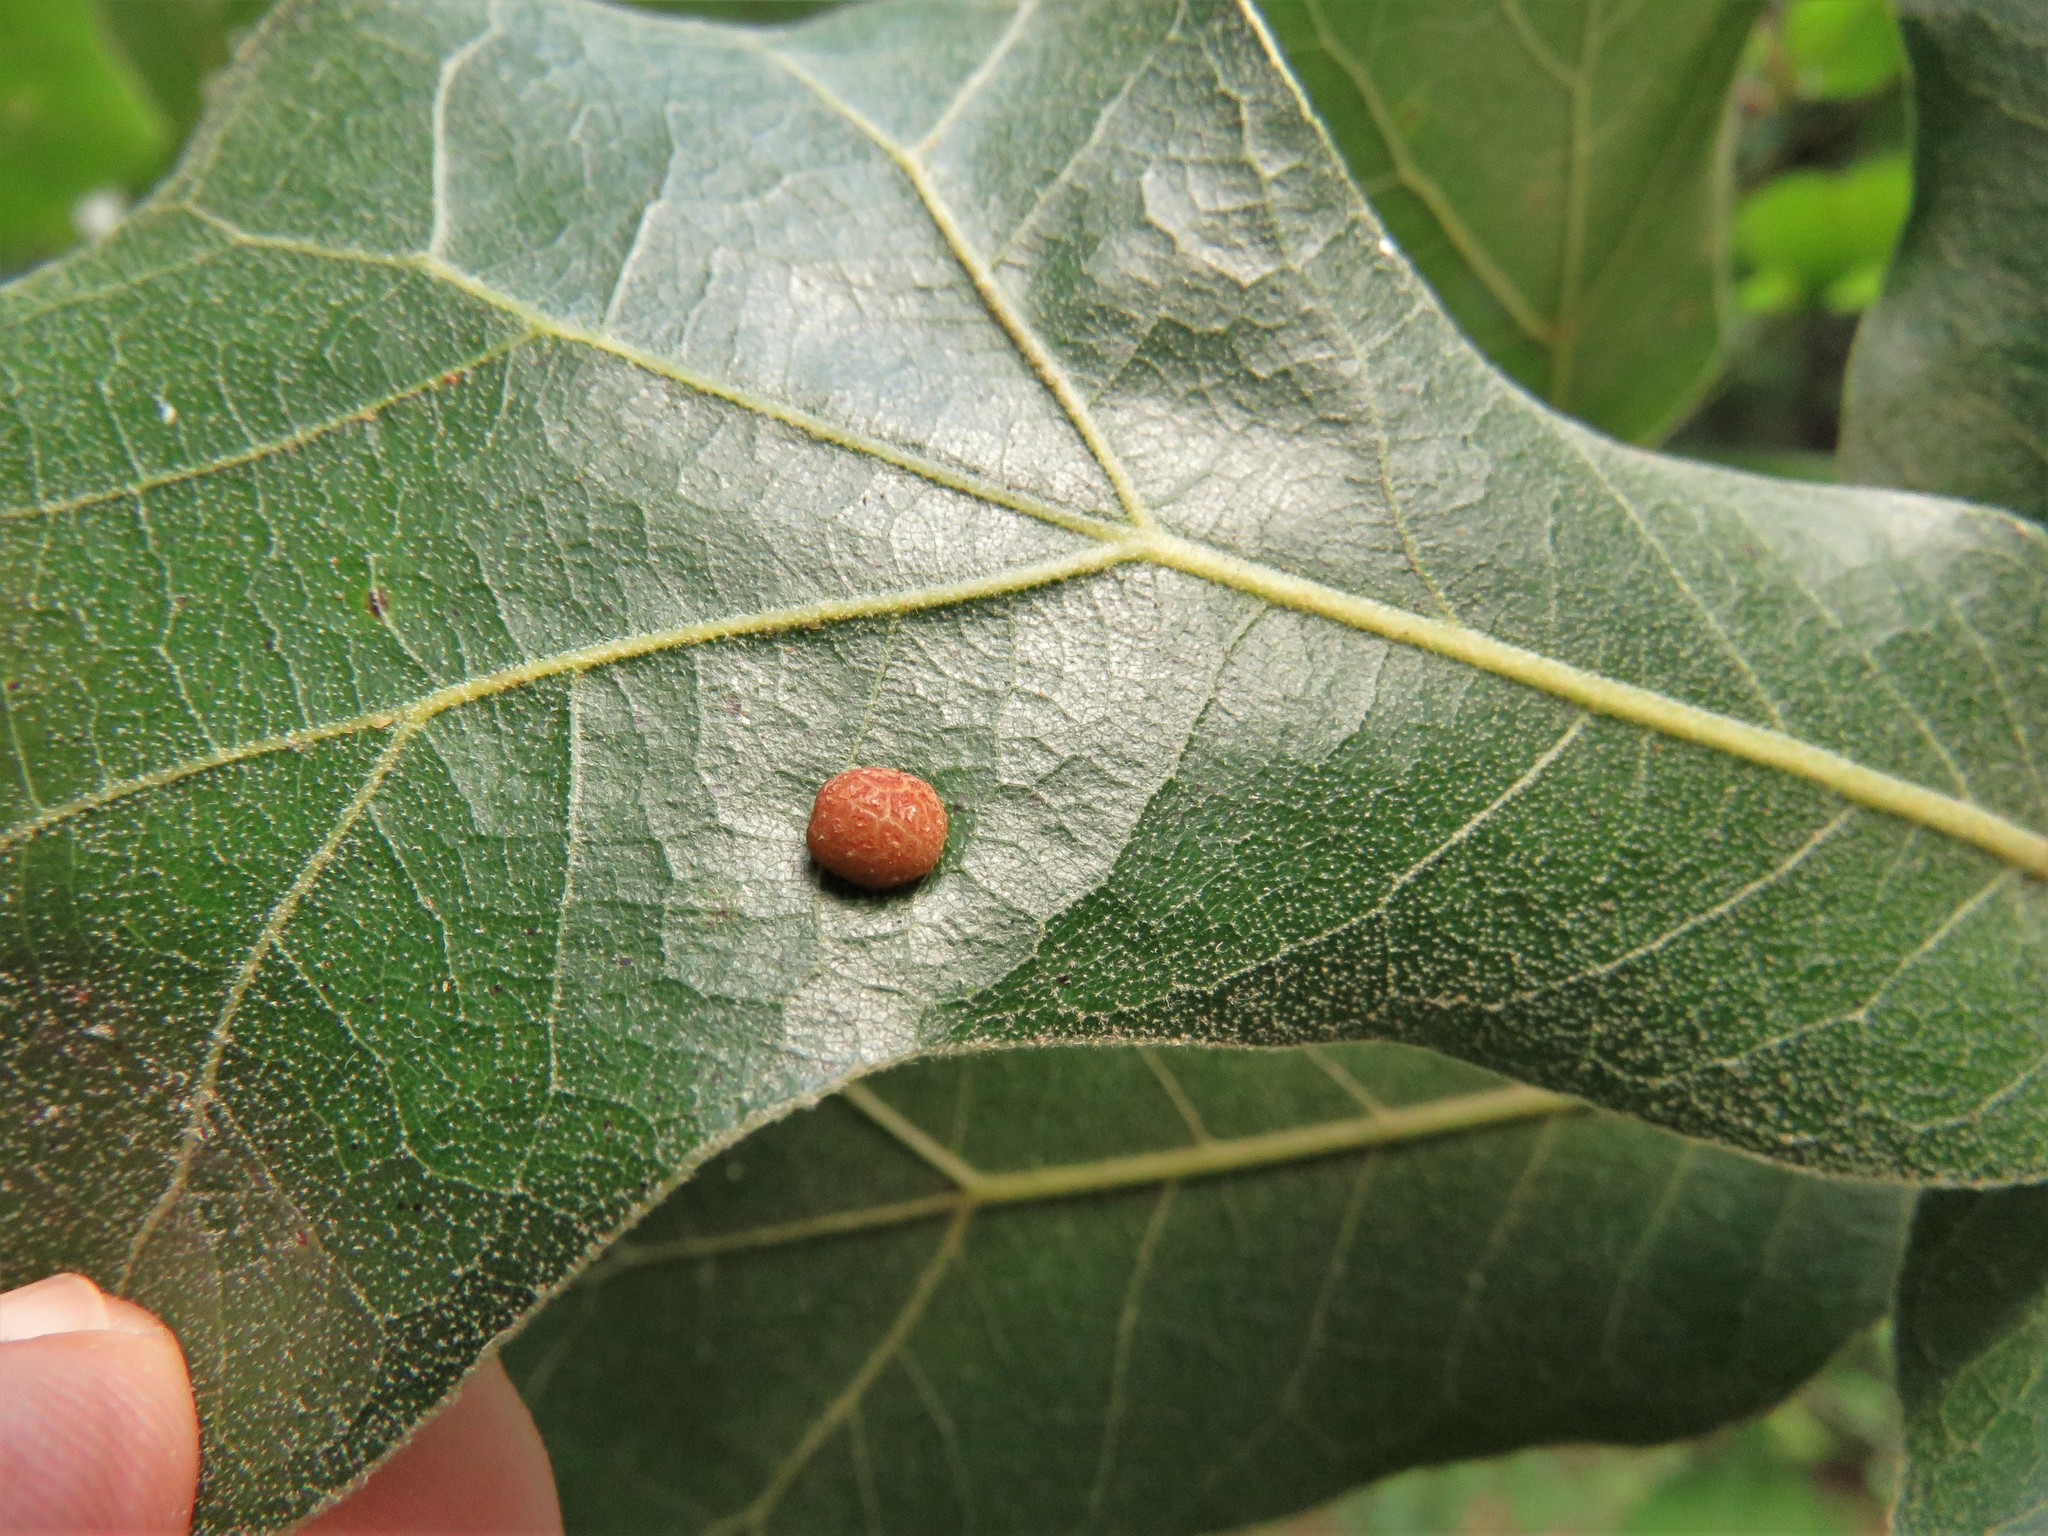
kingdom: Animalia
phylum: Arthropoda
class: Insecta
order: Diptera
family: Cecidomyiidae
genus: Polystepha
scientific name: Polystepha pilulae
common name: Oak leaf gall midge
